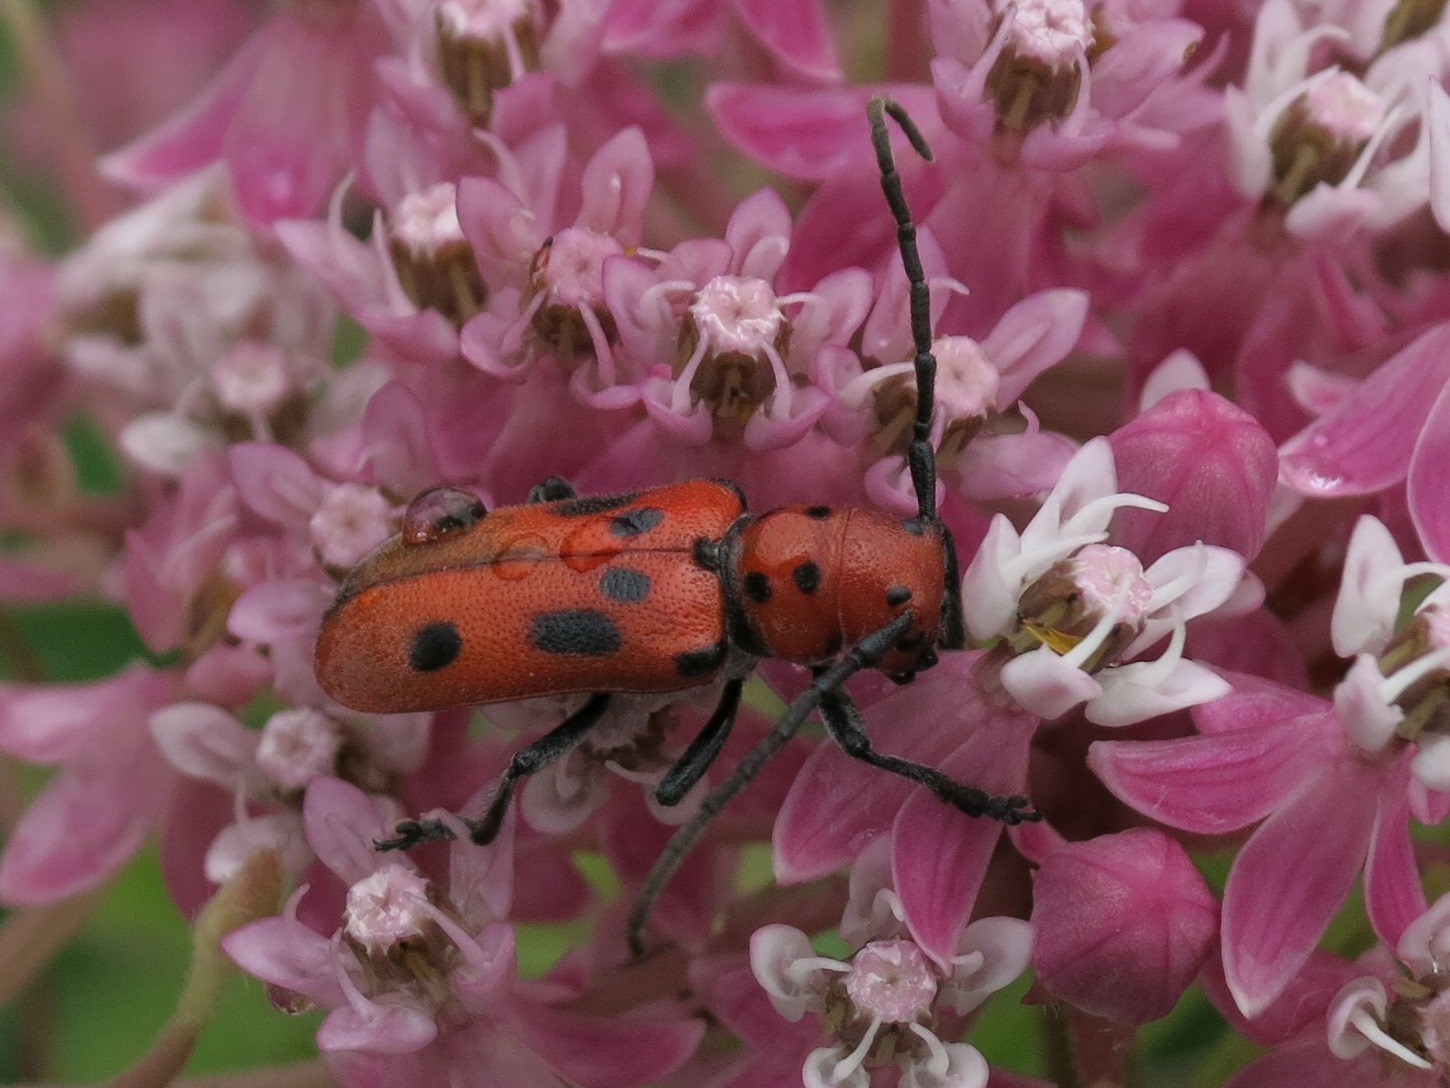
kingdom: Animalia
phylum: Arthropoda
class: Insecta
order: Coleoptera
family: Cerambycidae
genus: Tetraopes
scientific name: Tetraopes tetrophthalmus
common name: Red milkweed beetle
